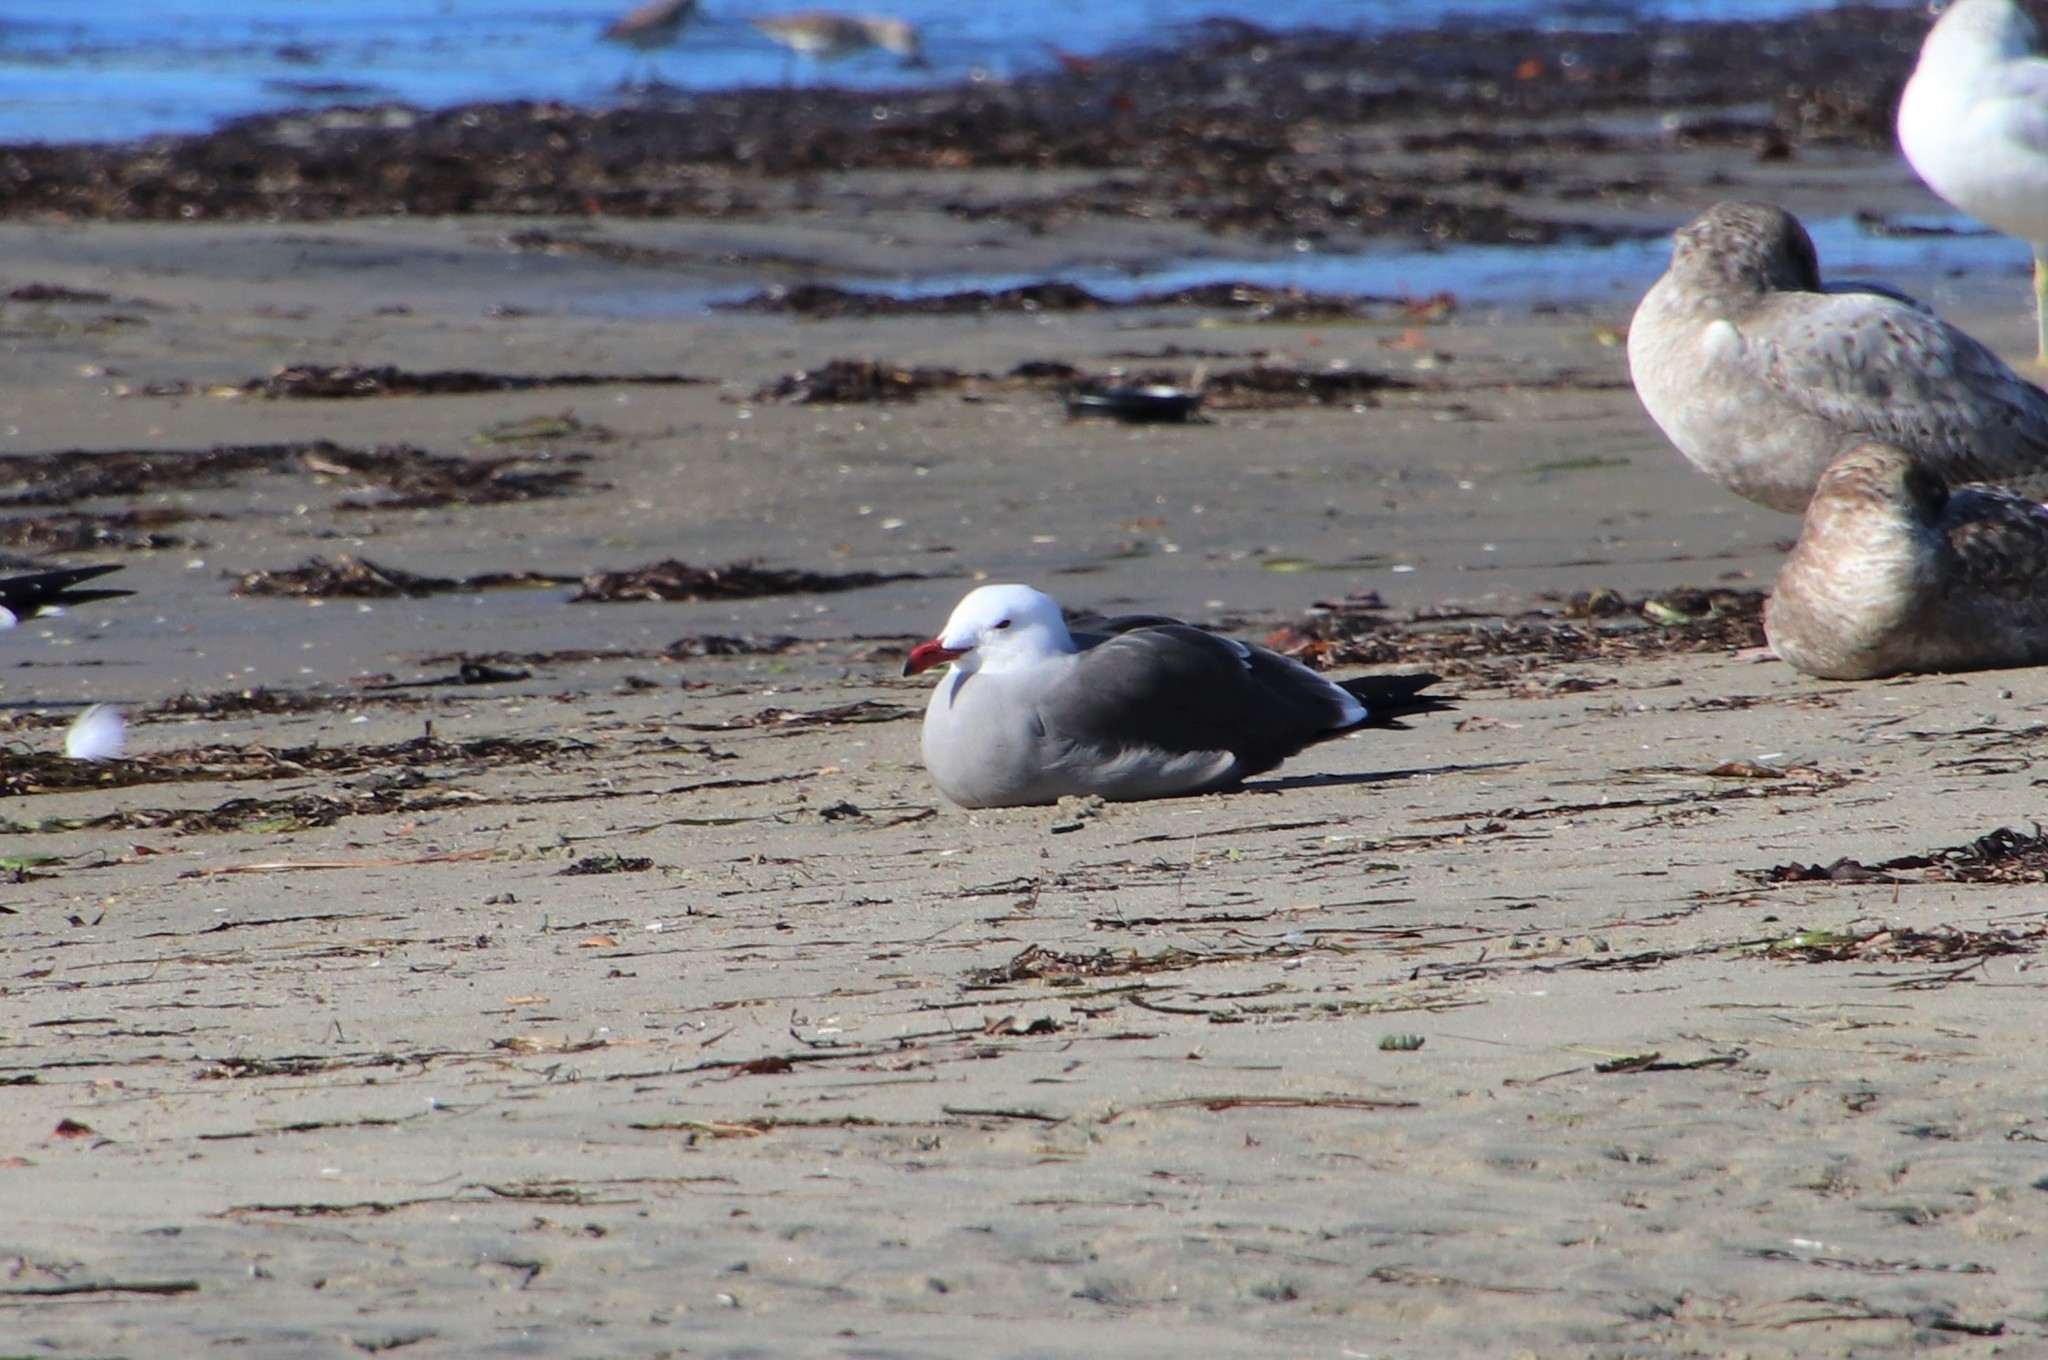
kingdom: Animalia
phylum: Chordata
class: Aves
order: Charadriiformes
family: Laridae
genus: Larus
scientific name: Larus heermanni
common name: Heermann's gull
